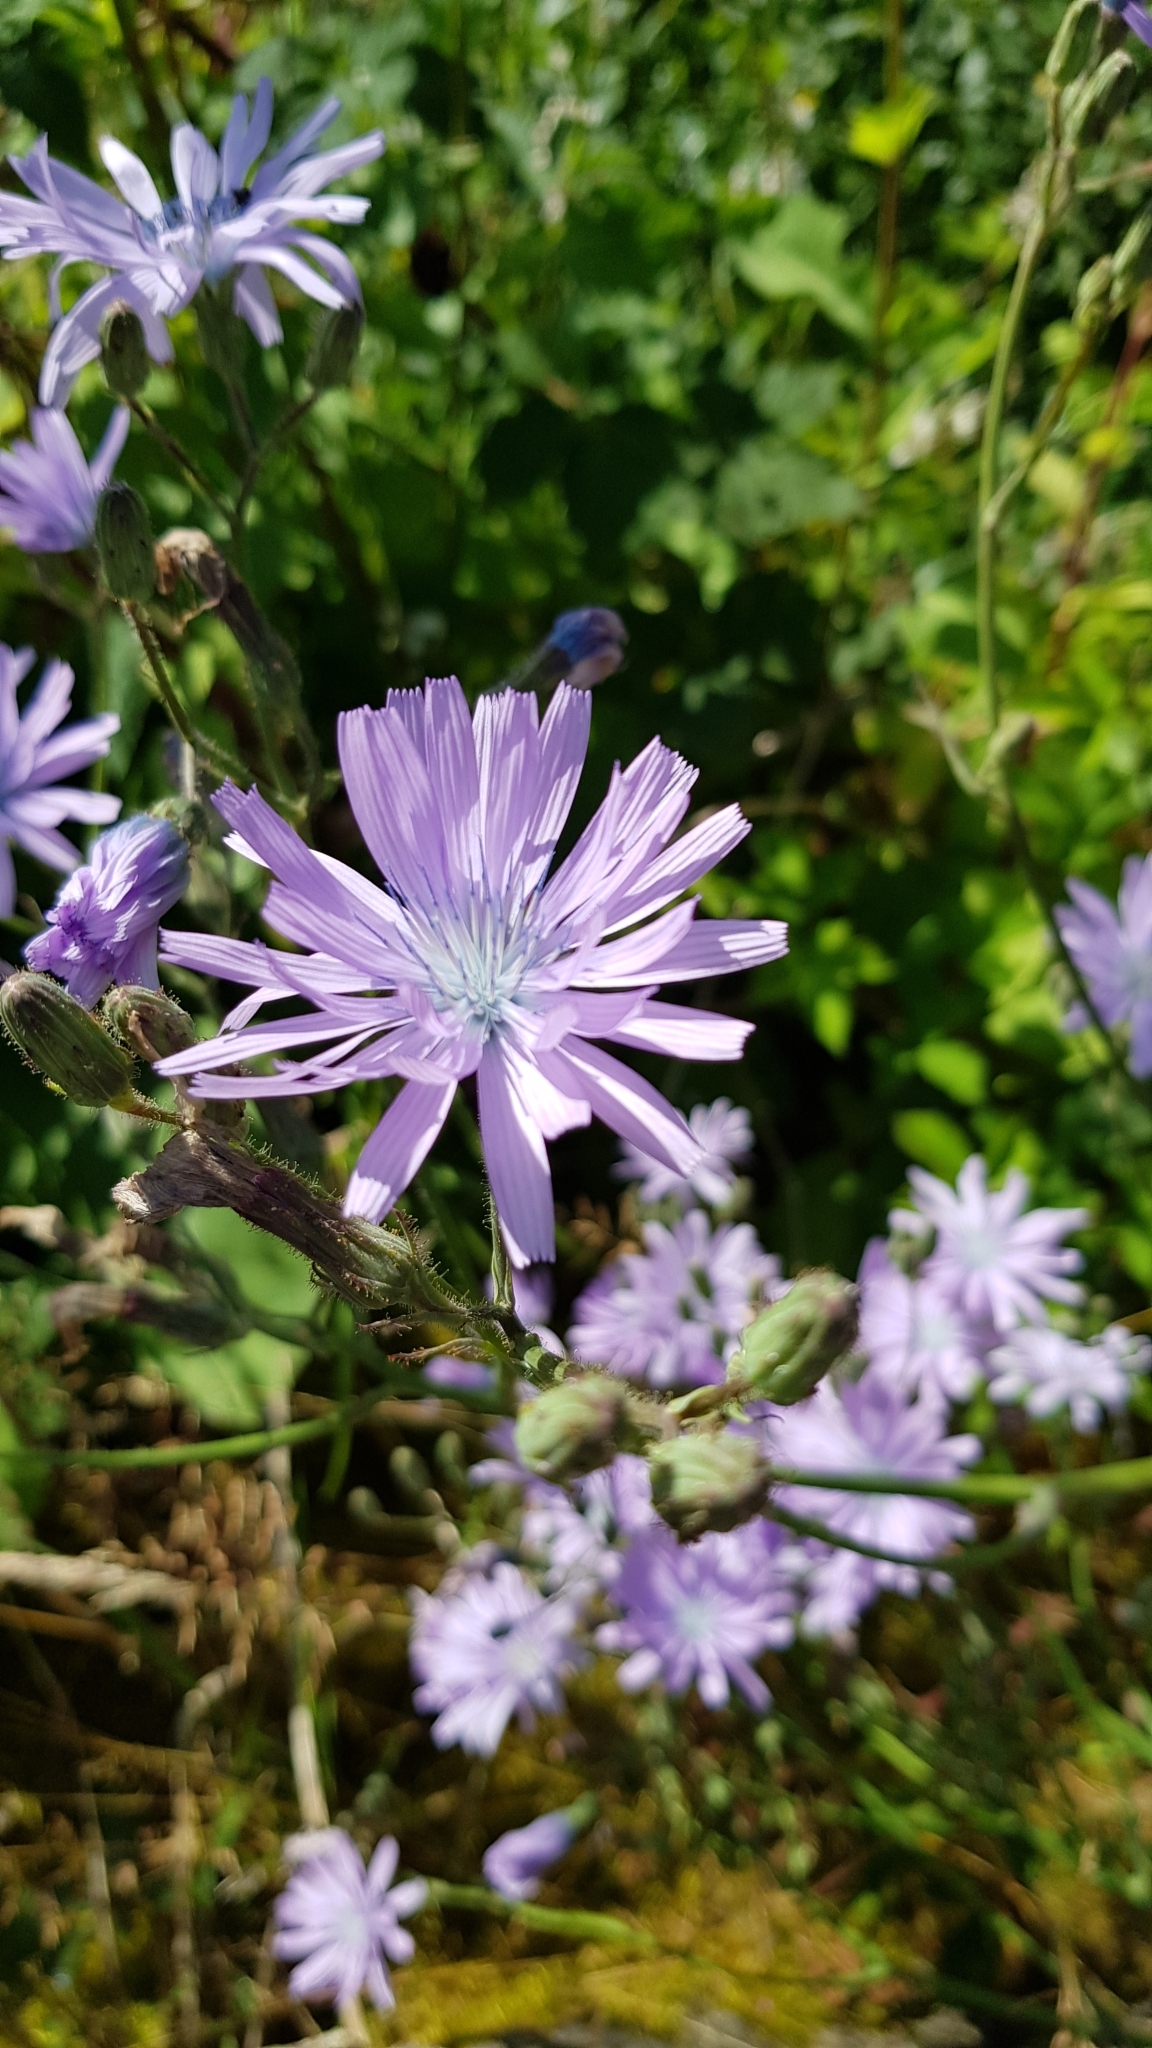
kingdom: Plantae
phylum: Tracheophyta
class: Magnoliopsida
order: Asterales
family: Asteraceae
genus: Lactuca
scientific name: Lactuca macrophylla
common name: Common blue-sow-thistle
